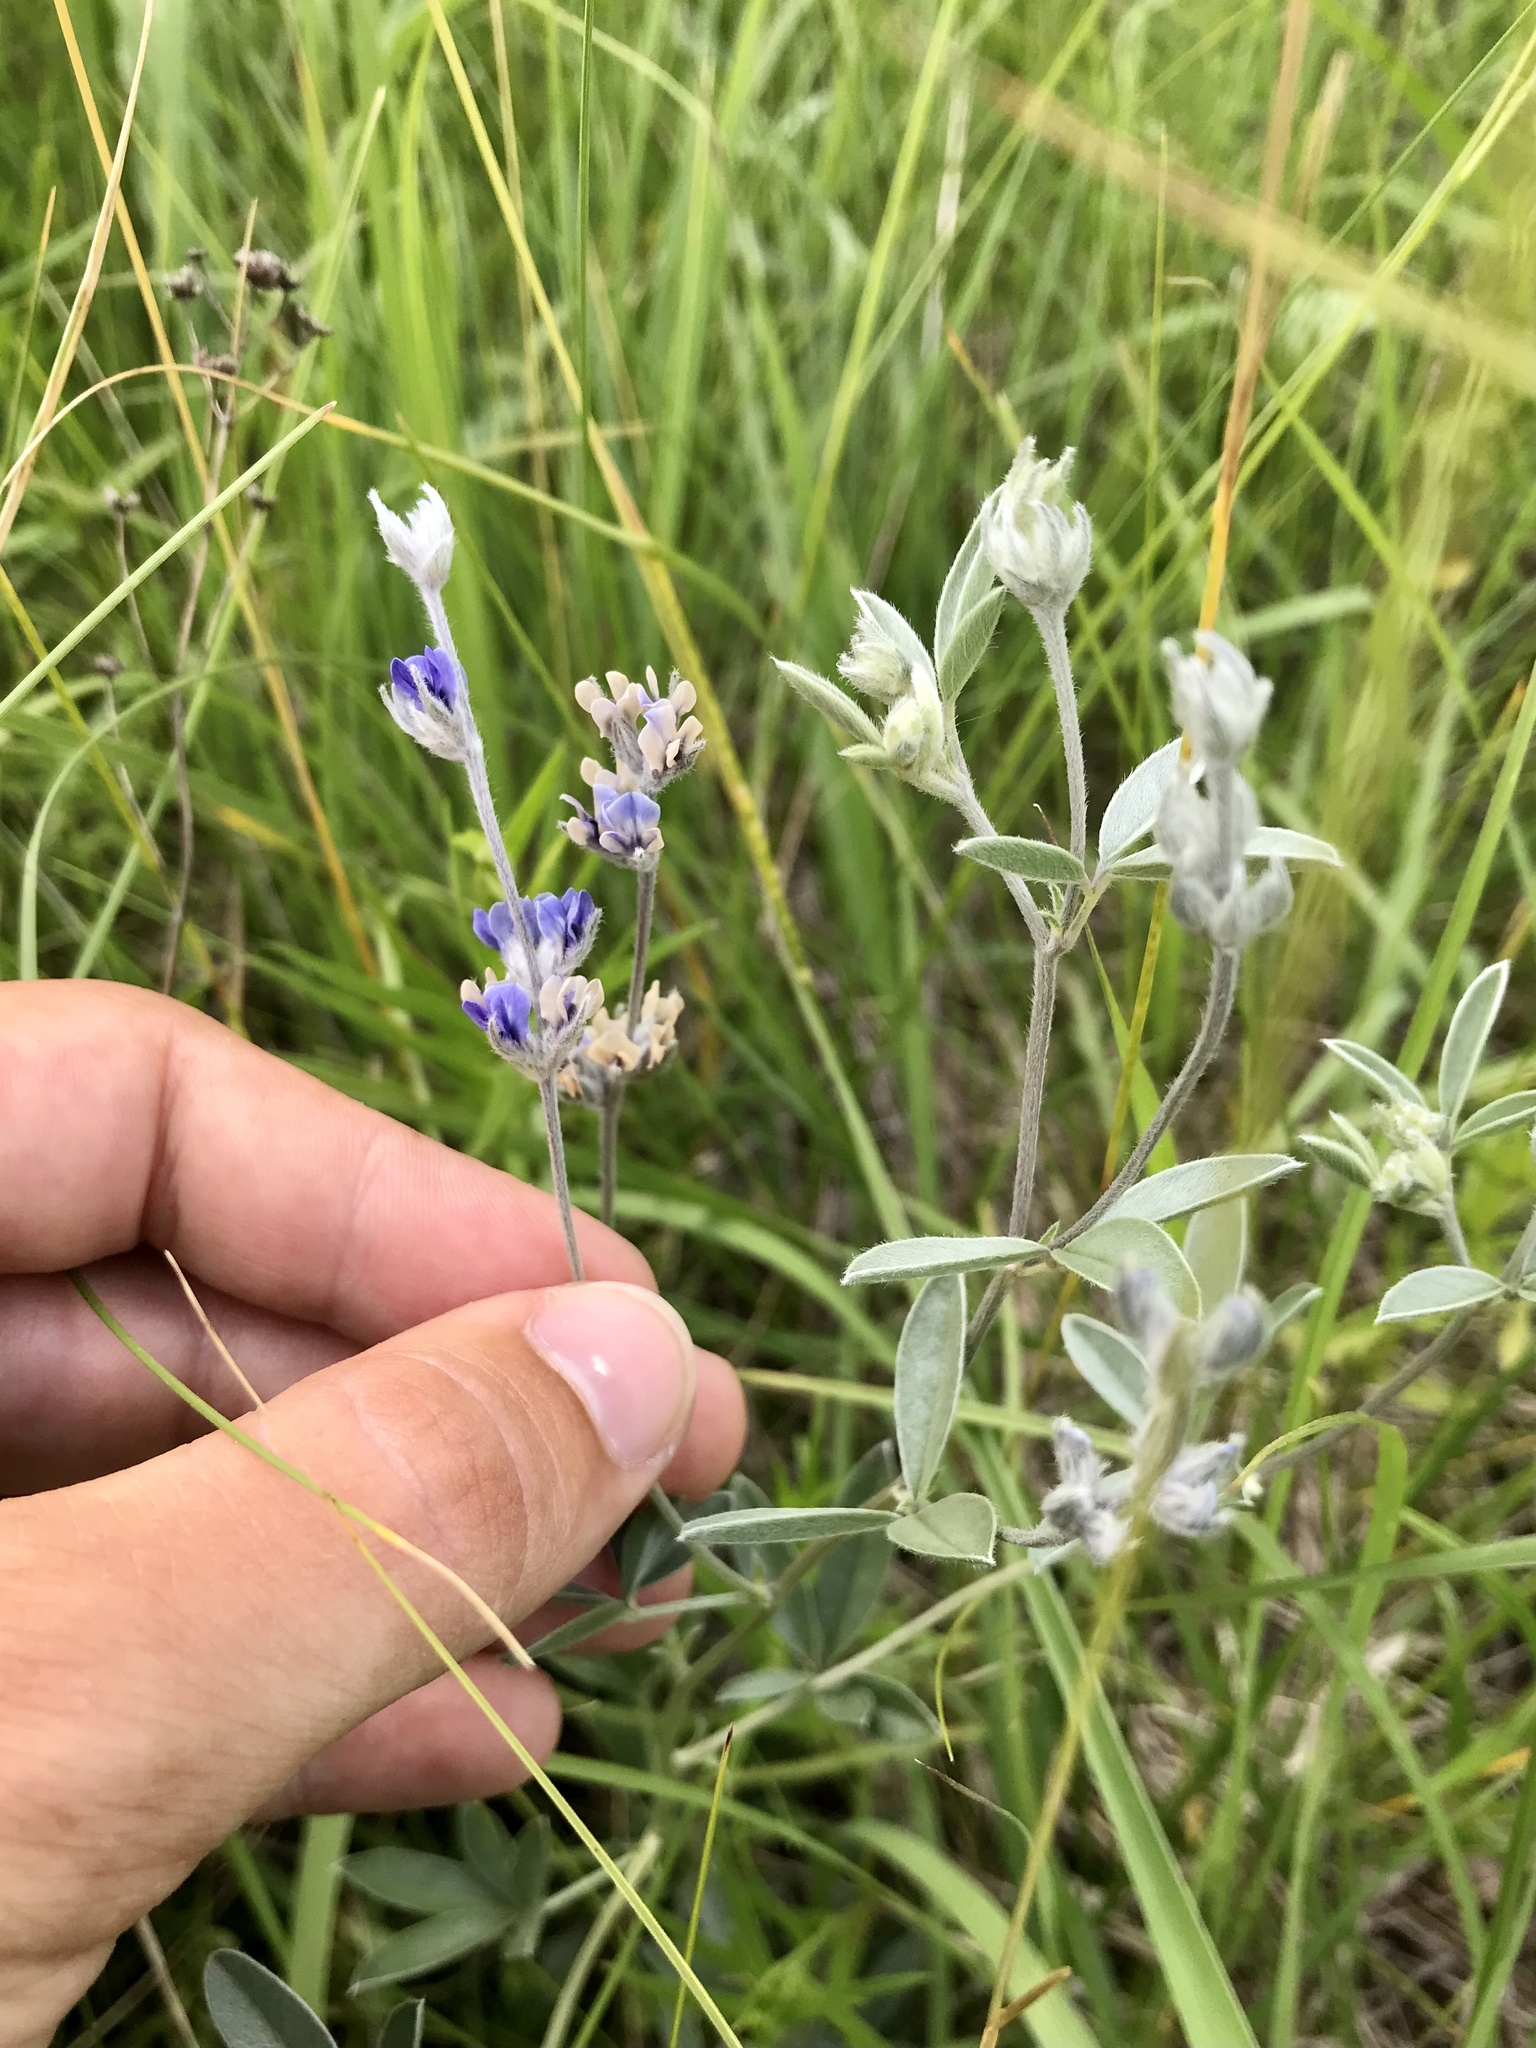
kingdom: Plantae
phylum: Tracheophyta
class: Magnoliopsida
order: Fabales
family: Fabaceae
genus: Pediomelum
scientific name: Pediomelum argophyllum
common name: Silver-leaved indian breadroot
